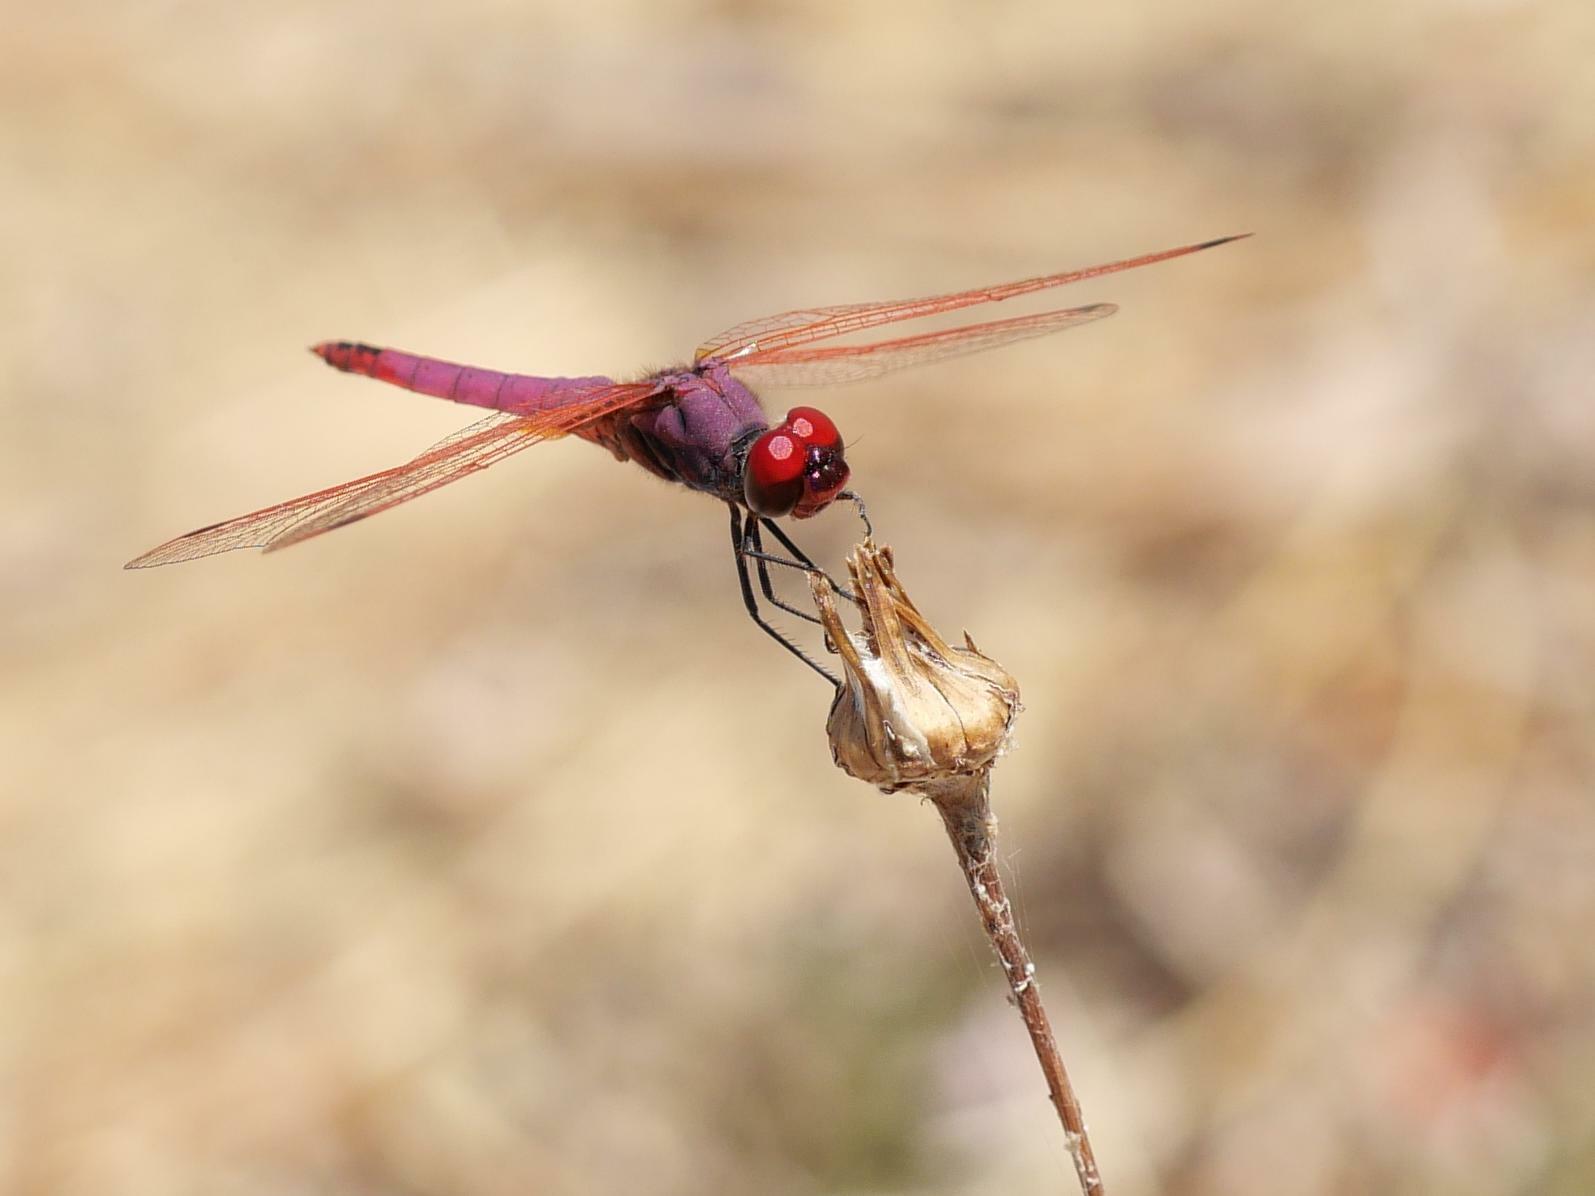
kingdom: Animalia
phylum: Arthropoda
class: Insecta
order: Odonata
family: Libellulidae
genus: Trithemis
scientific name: Trithemis annulata
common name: Violet dropwing
